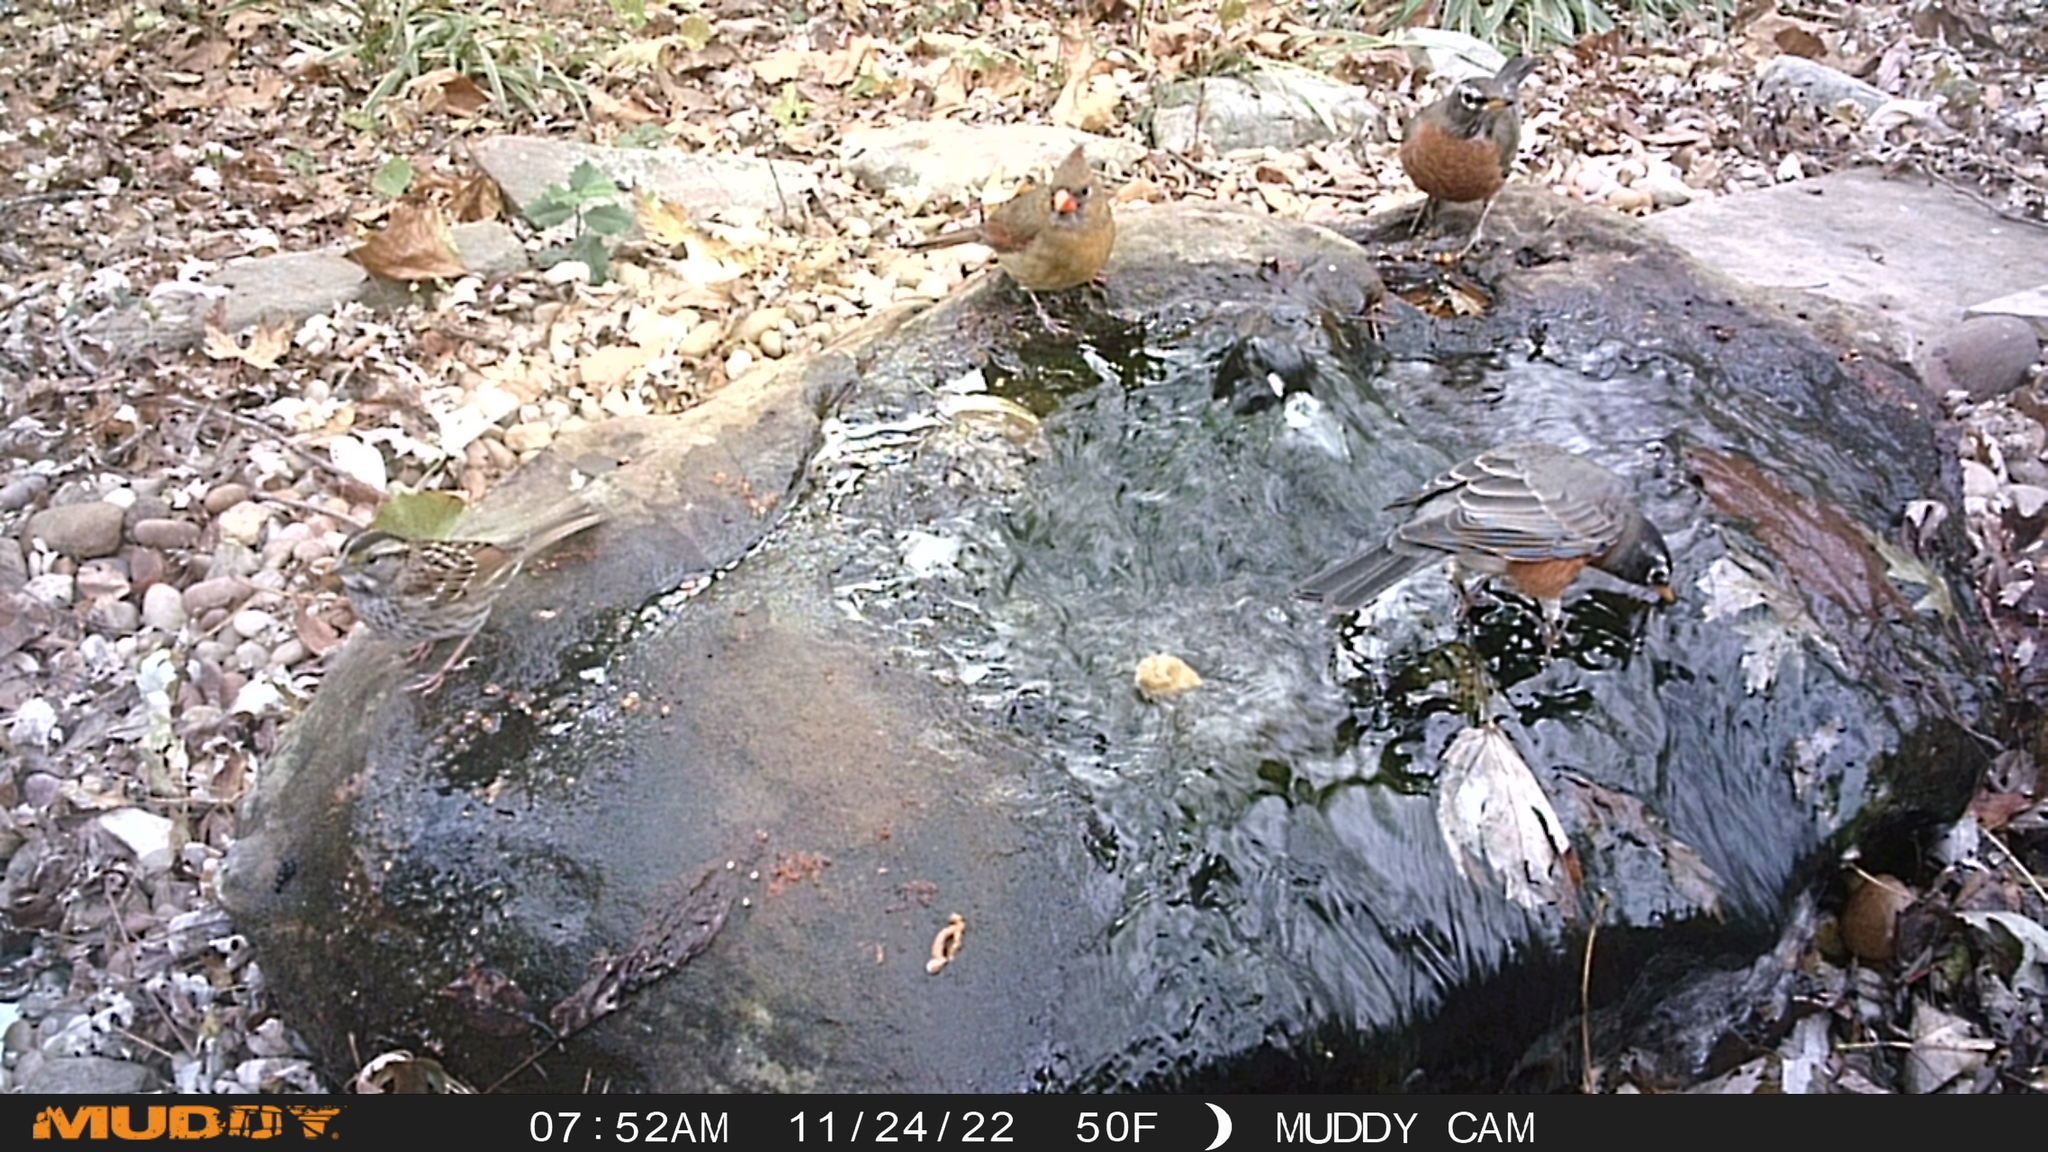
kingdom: Animalia
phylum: Chordata
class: Aves
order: Passeriformes
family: Turdidae
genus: Turdus
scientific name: Turdus migratorius
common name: American robin
